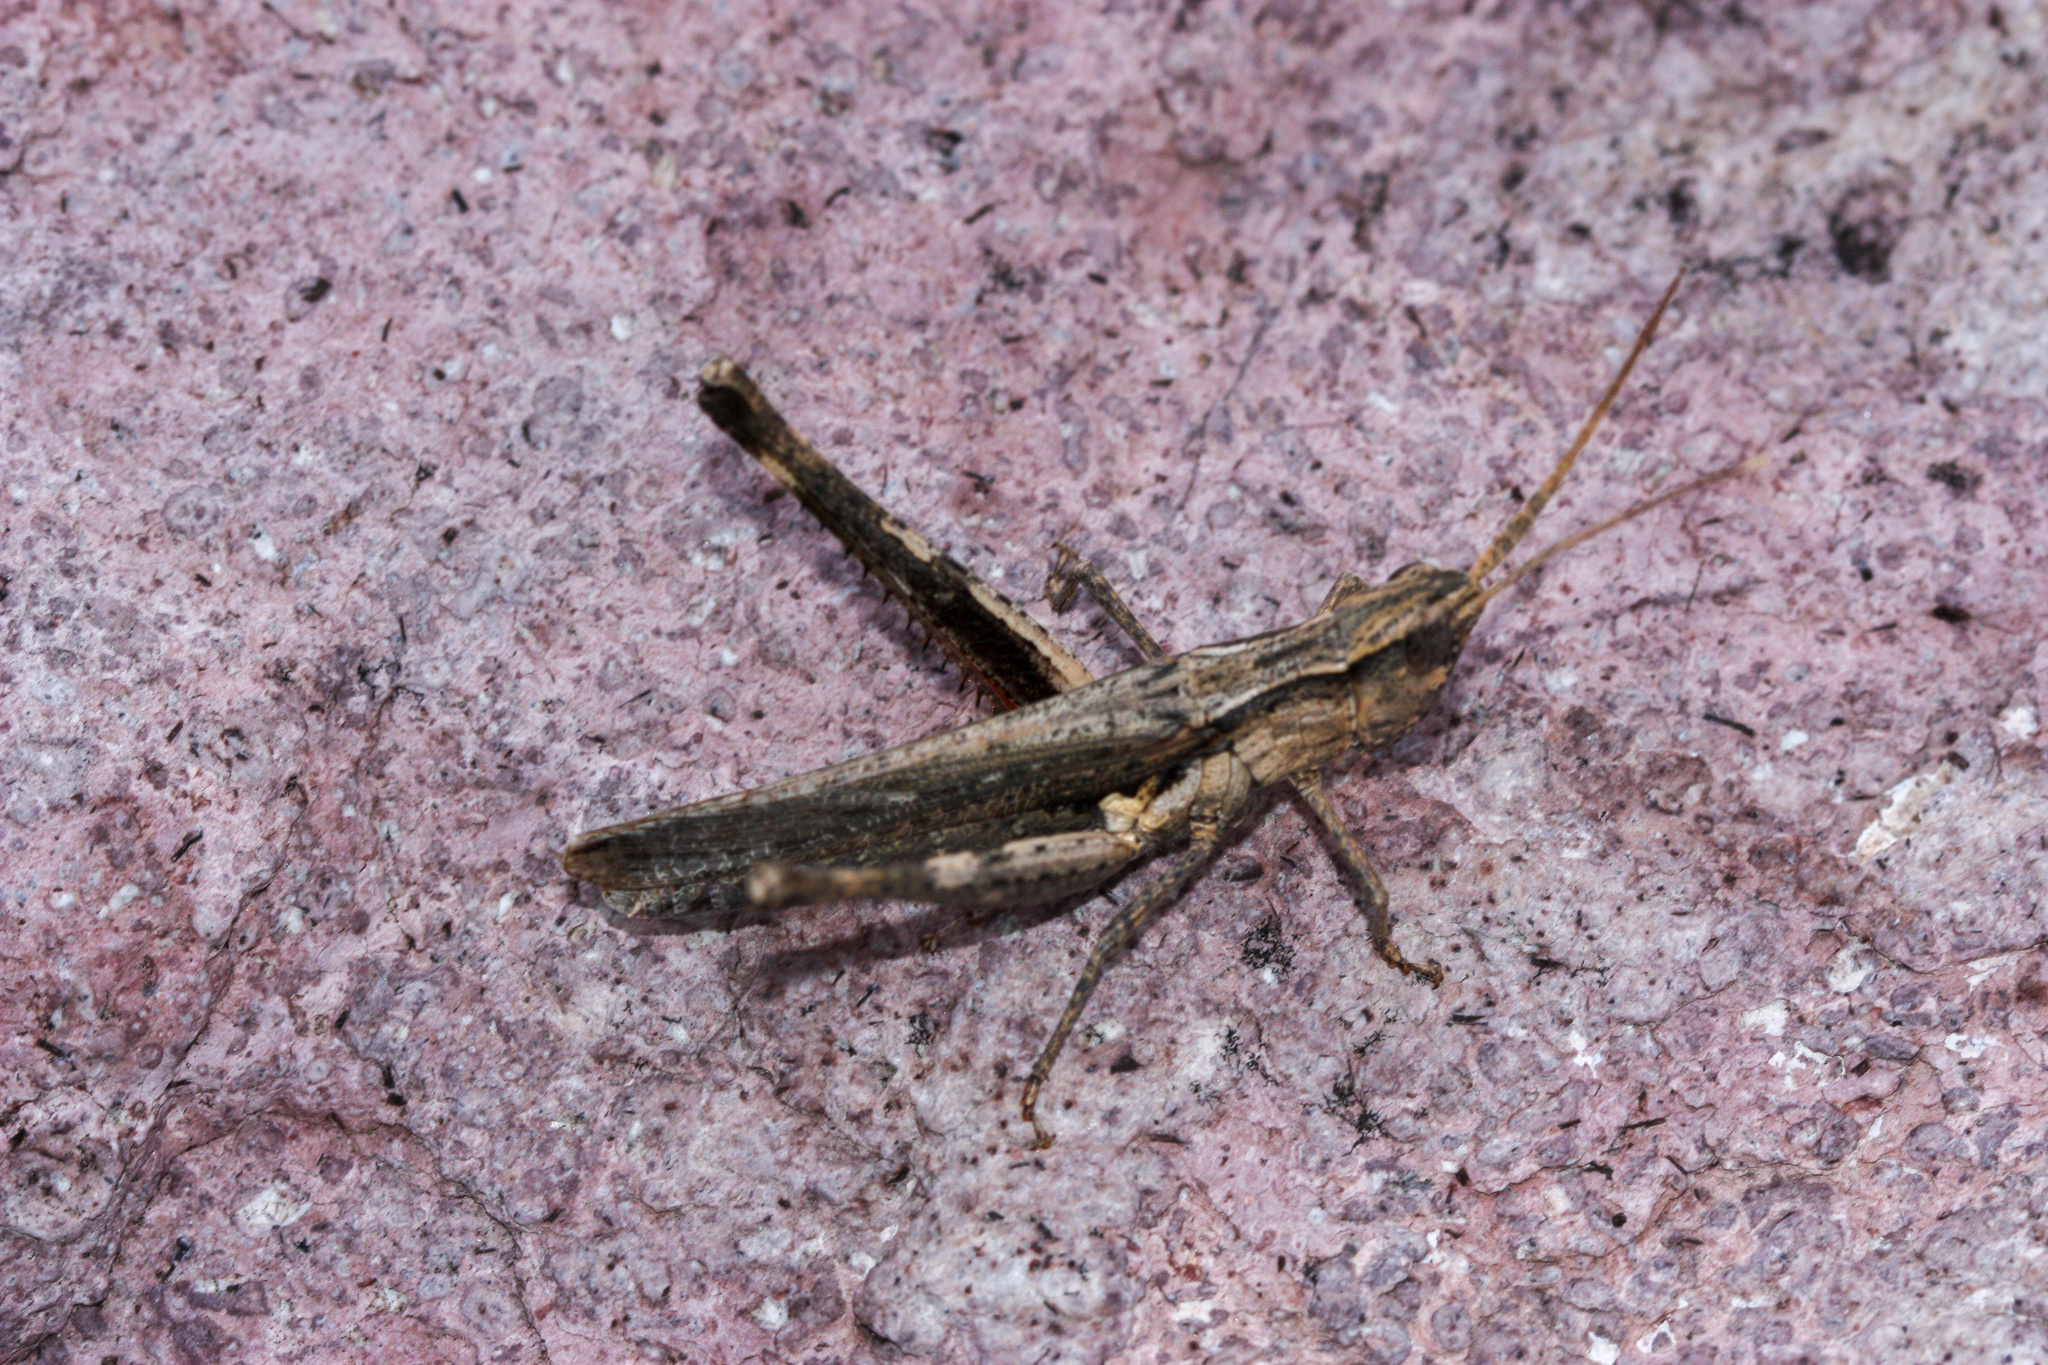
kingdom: Animalia
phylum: Arthropoda
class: Insecta
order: Orthoptera
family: Acrididae
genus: Acantherus
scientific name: Acantherus piperatus
